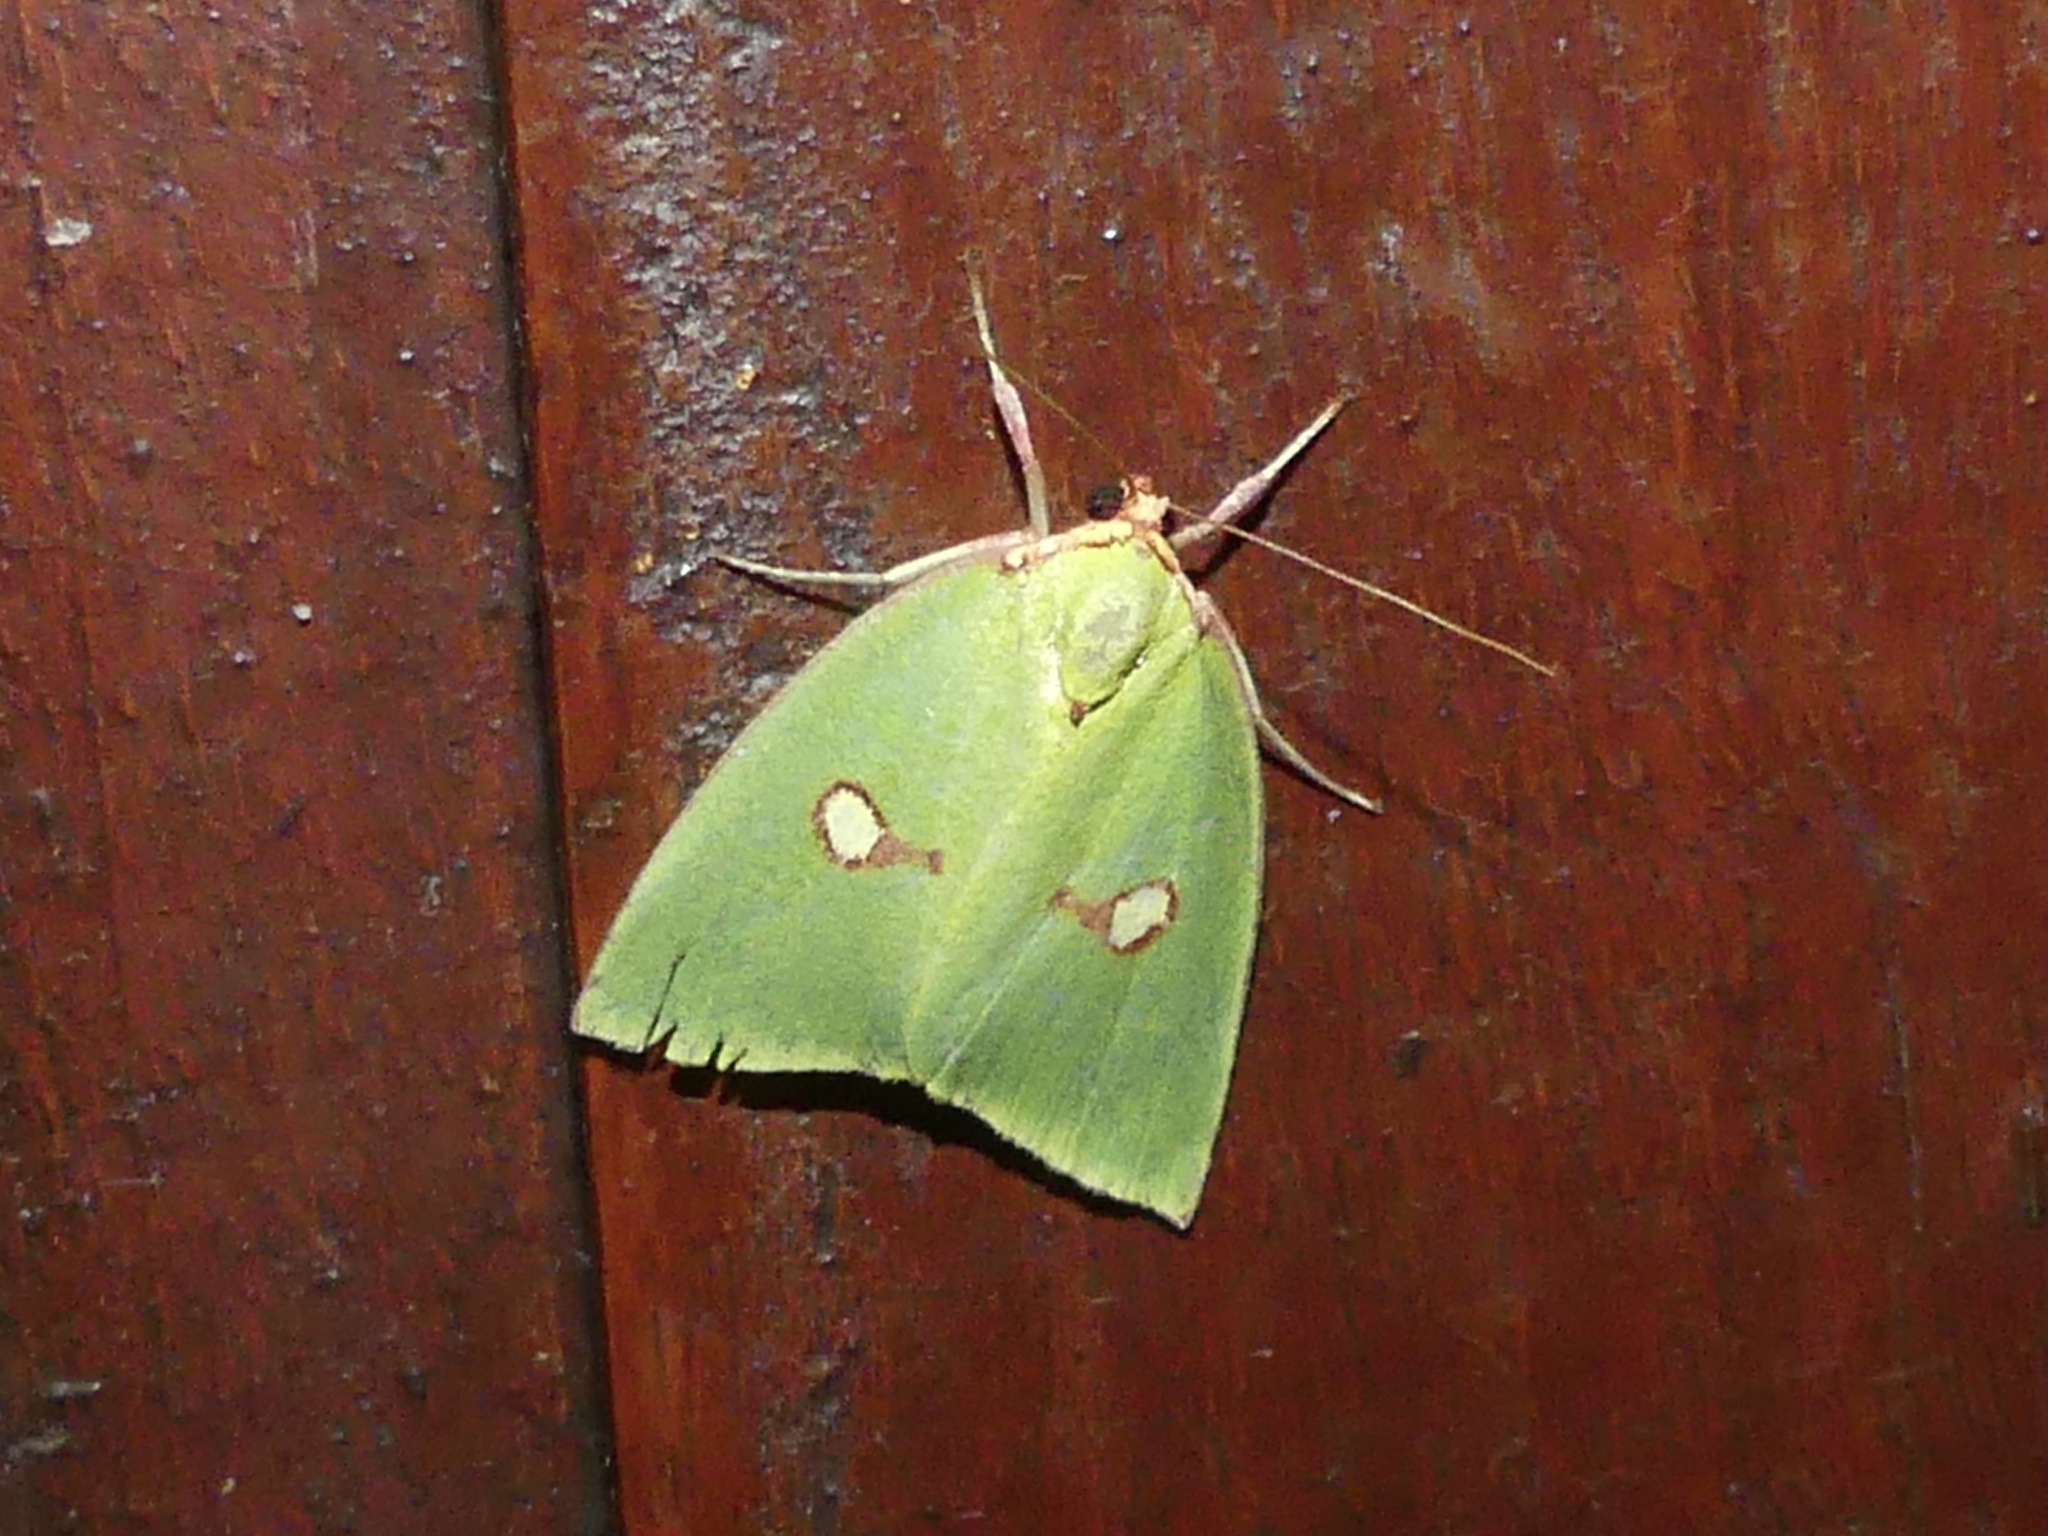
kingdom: Animalia
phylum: Arthropoda
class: Insecta
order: Lepidoptera
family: Nolidae
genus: Tyana
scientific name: Tyana marina
